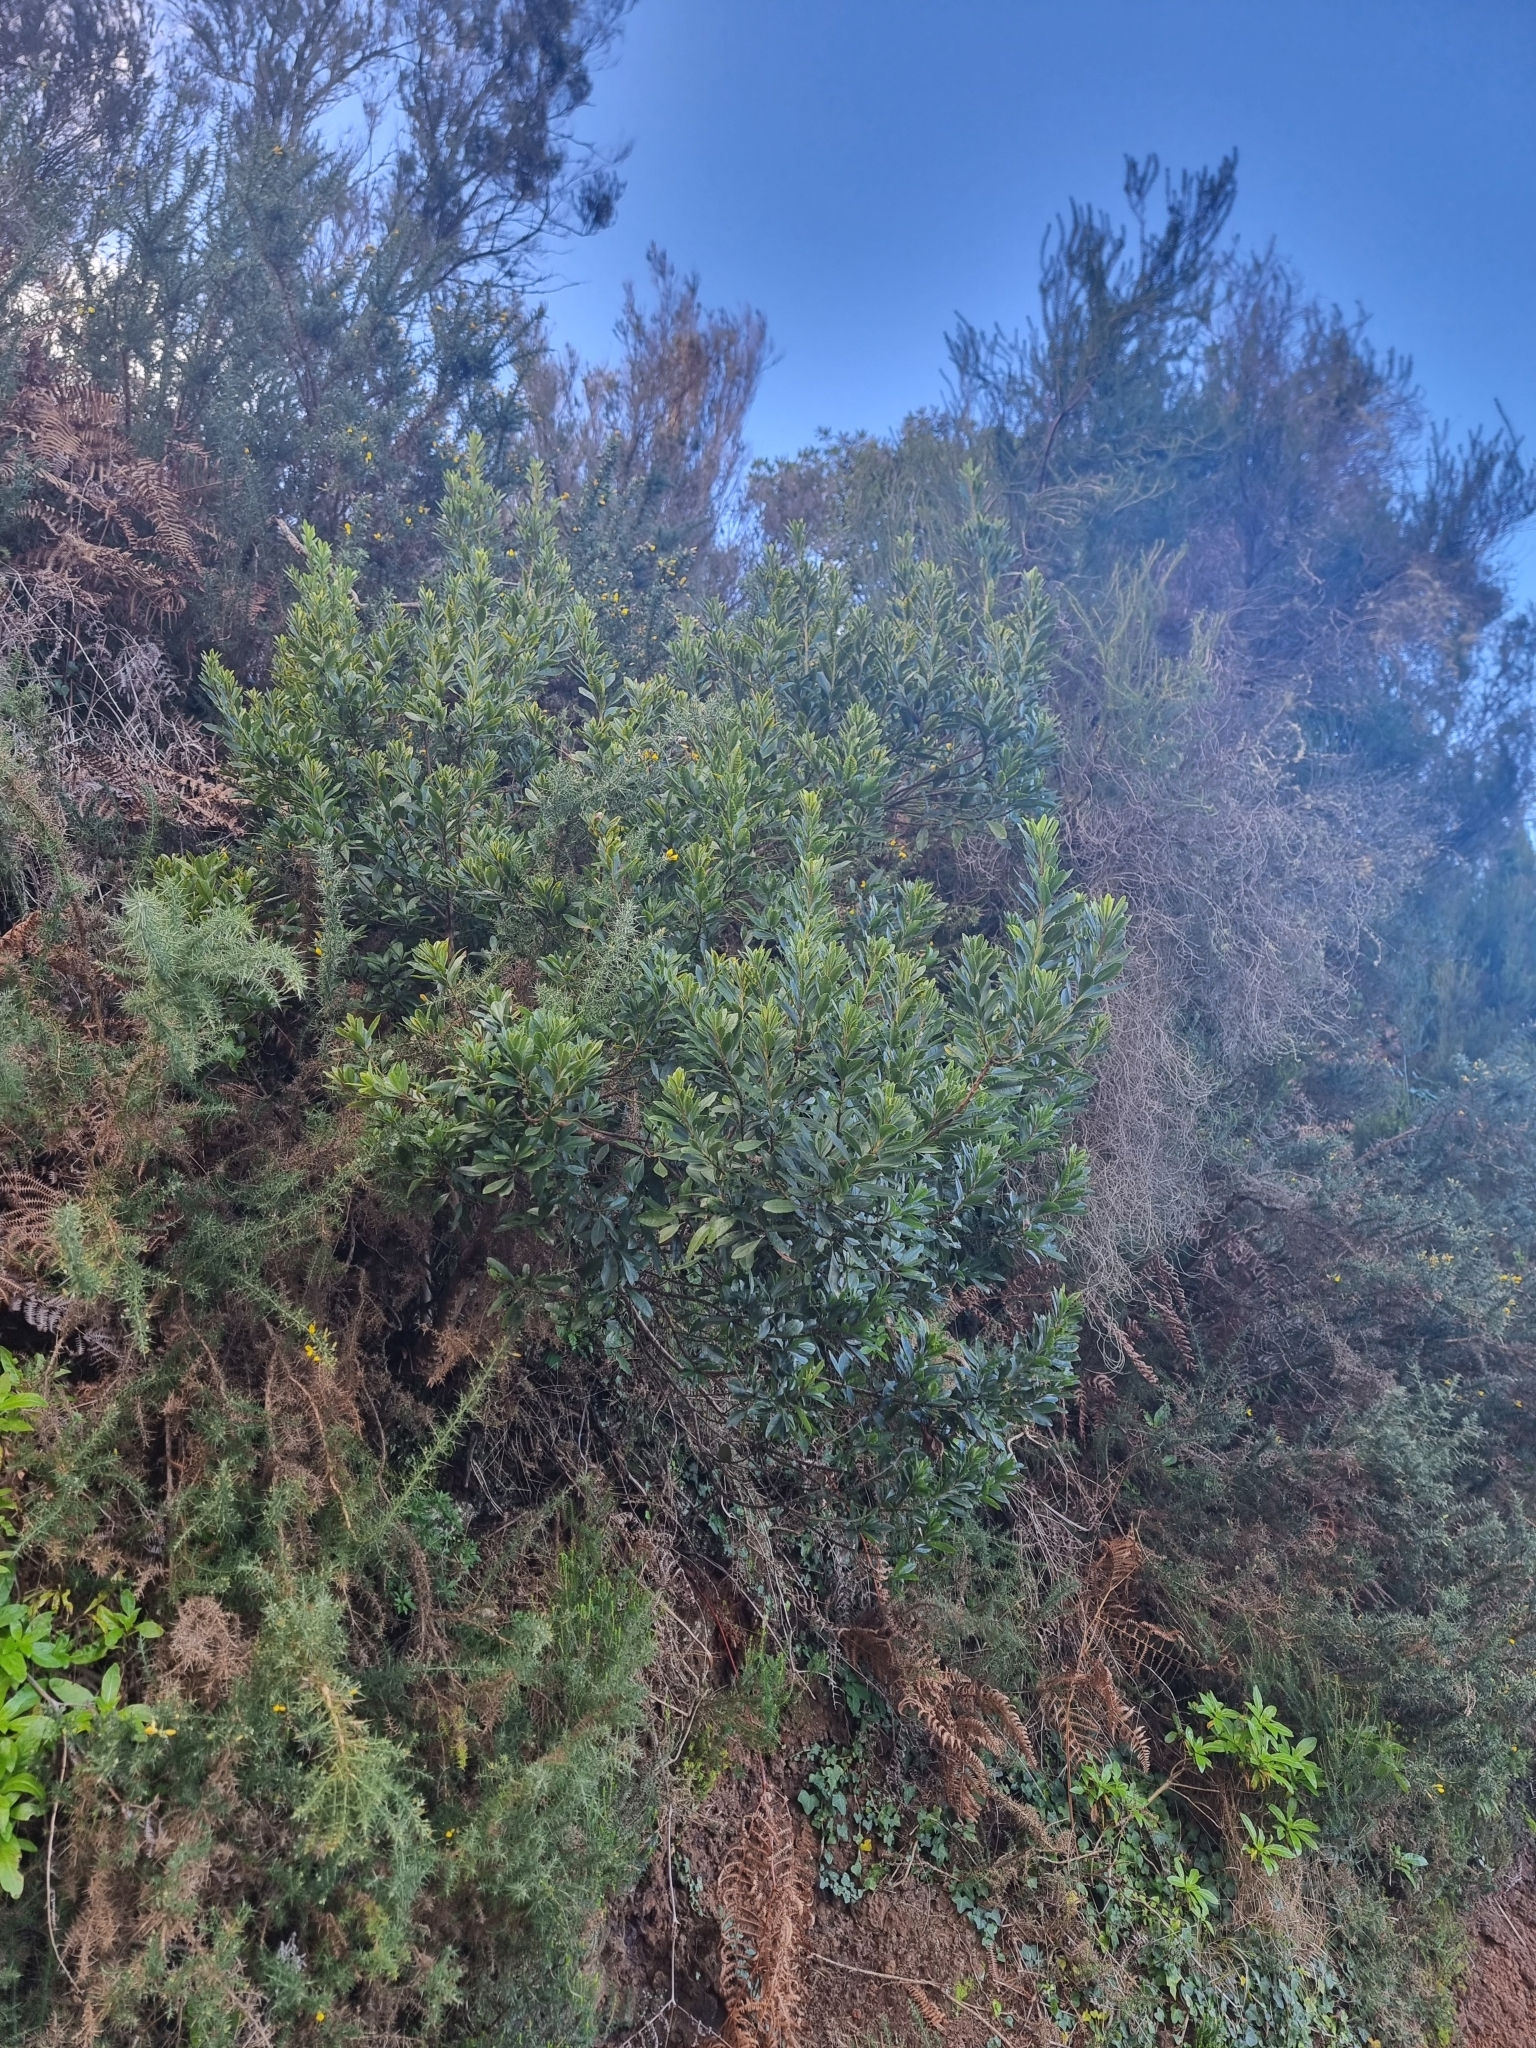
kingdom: Plantae
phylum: Tracheophyta
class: Magnoliopsida
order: Fagales
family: Myricaceae
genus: Morella
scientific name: Morella faya
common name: Firetree
